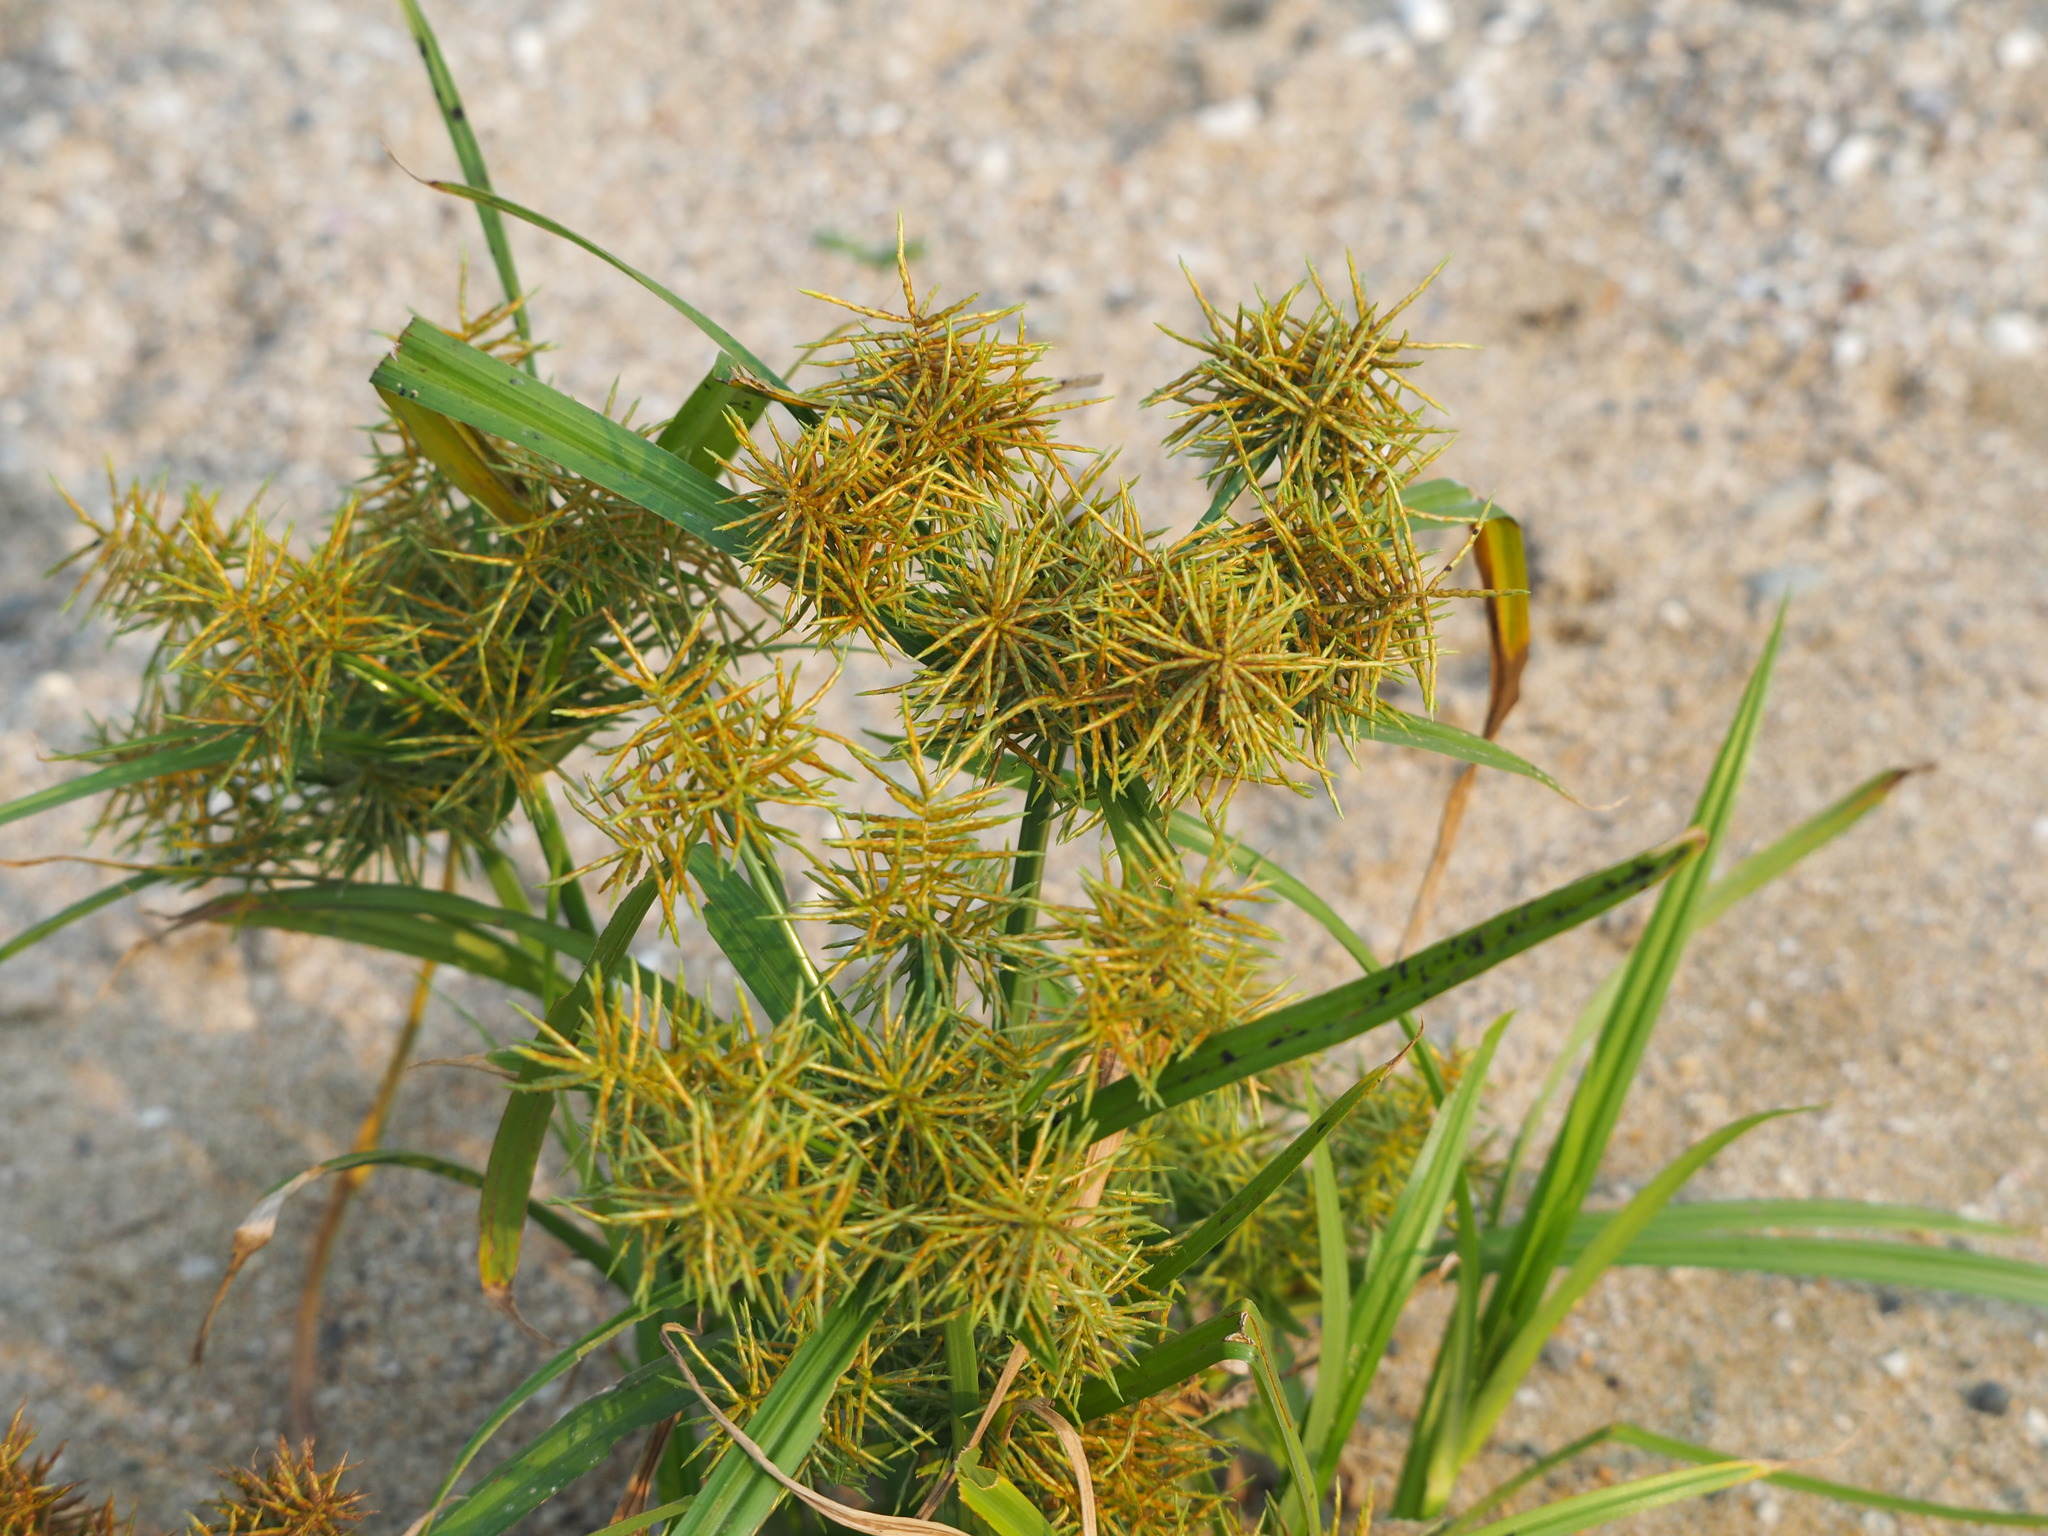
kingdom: Plantae
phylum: Tracheophyta
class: Liliopsida
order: Poales
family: Cyperaceae
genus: Cyperus
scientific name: Cyperus odoratus
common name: Fragrant flatsedge
